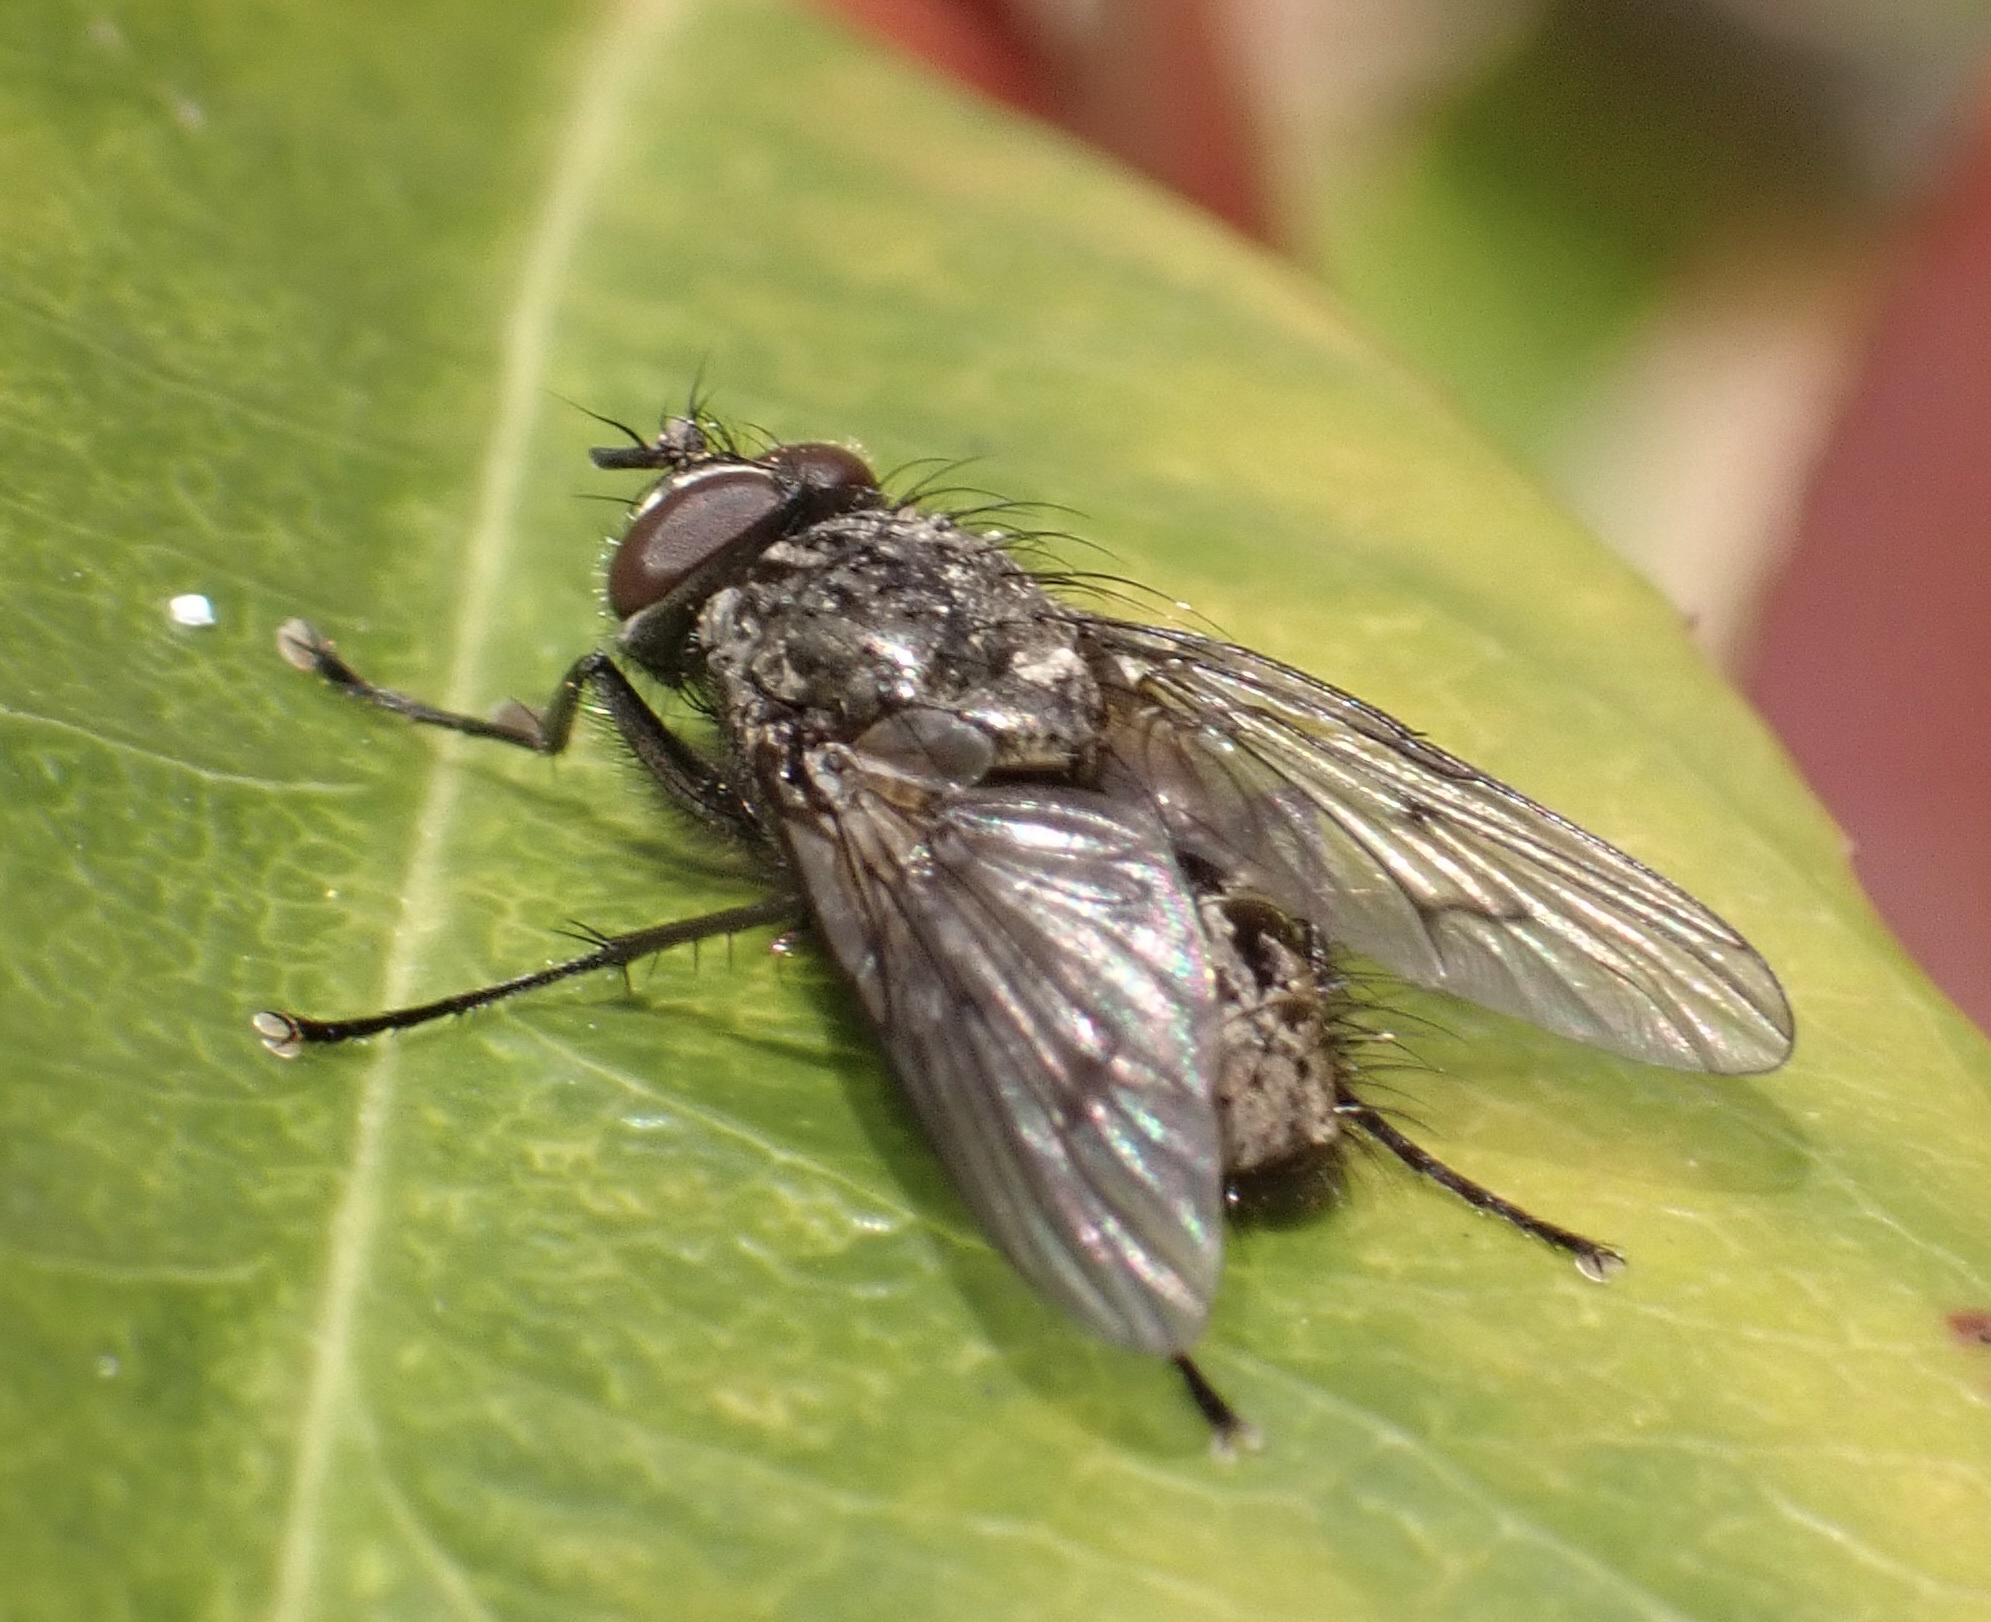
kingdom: Animalia
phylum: Arthropoda
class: Insecta
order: Diptera
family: Muscidae
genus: Helina
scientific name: Helina evecta
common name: Muscid fly
